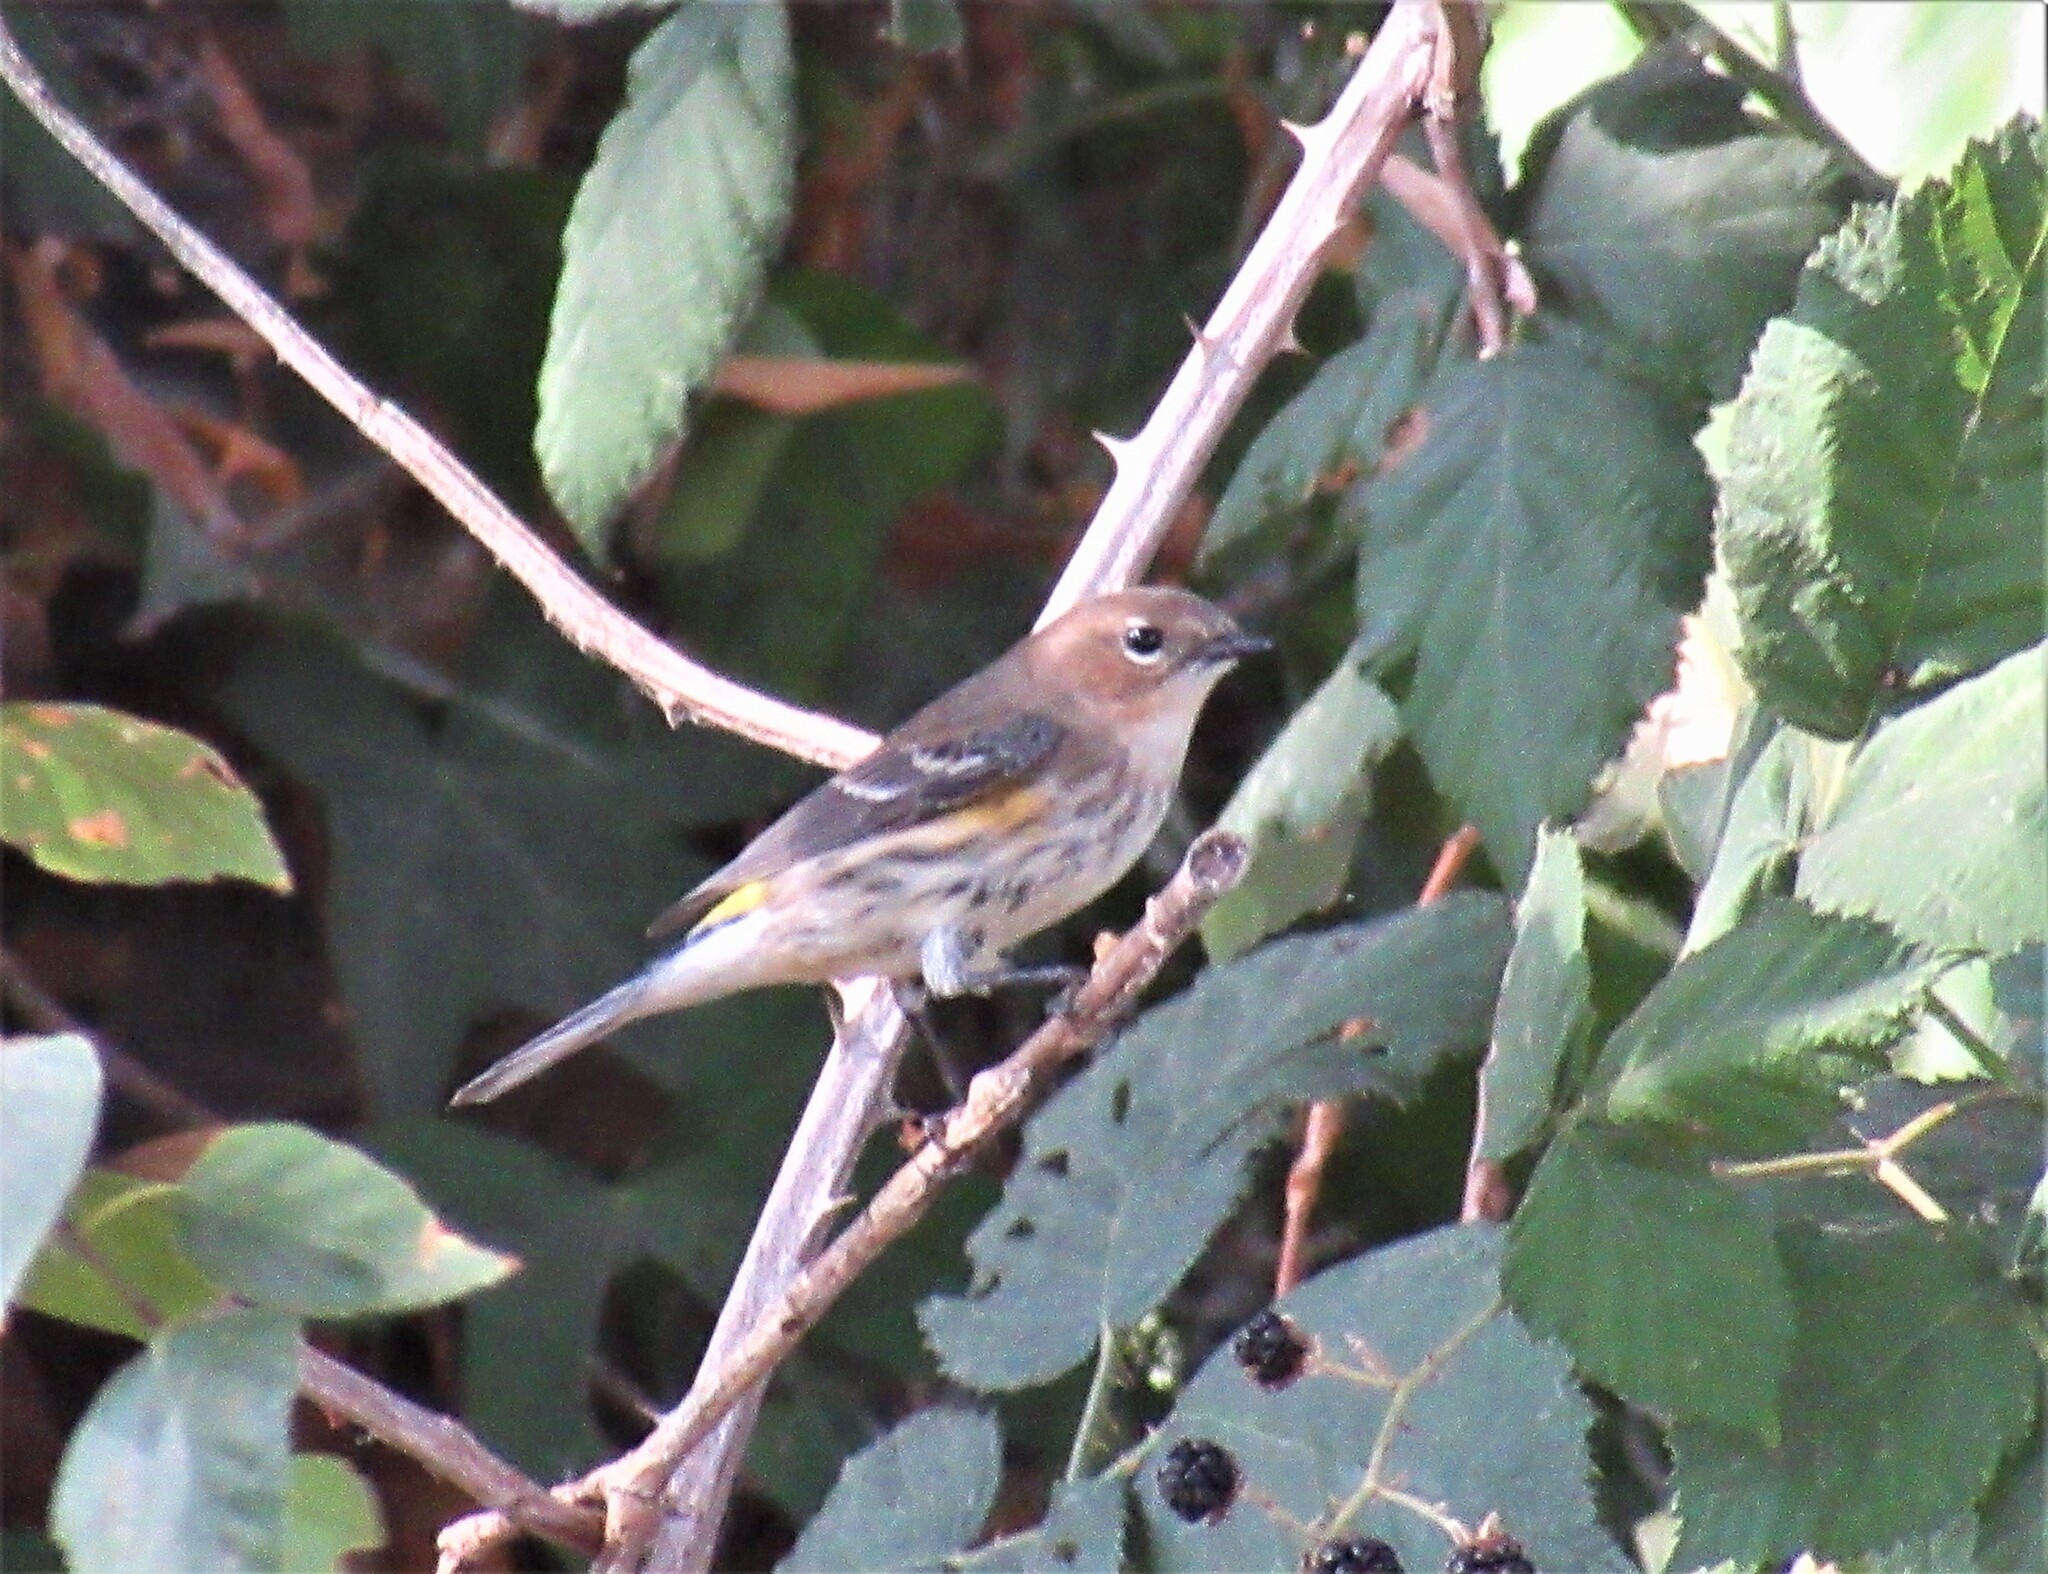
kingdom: Animalia
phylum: Chordata
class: Aves
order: Passeriformes
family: Parulidae
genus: Setophaga
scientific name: Setophaga coronata
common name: Myrtle warbler
